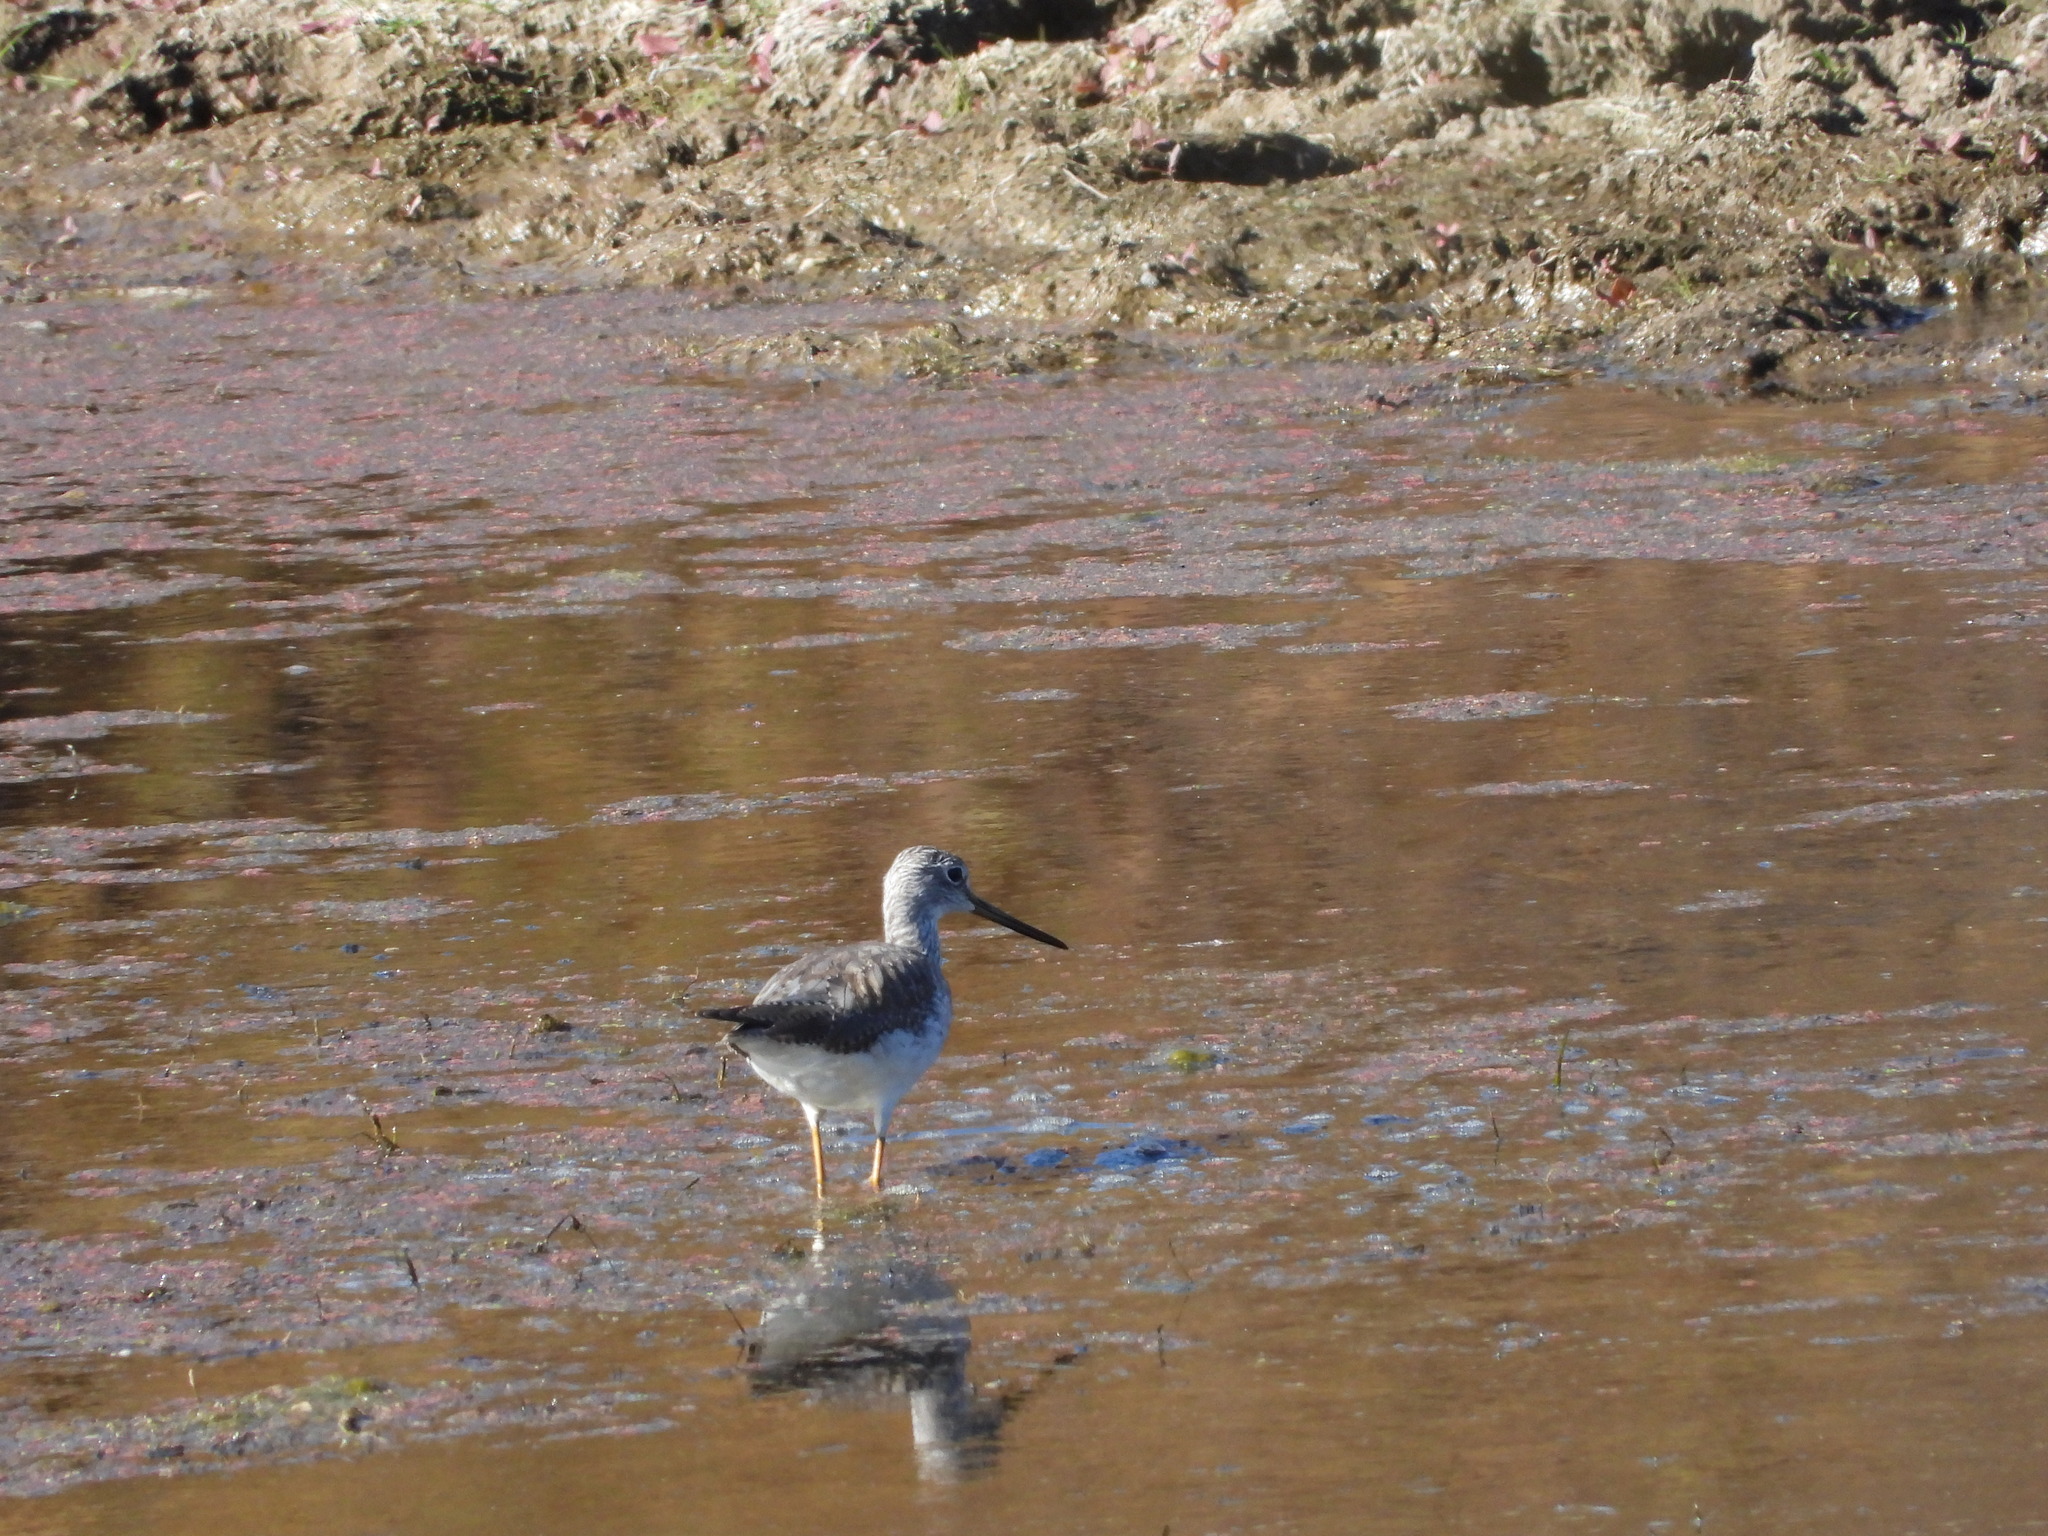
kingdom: Animalia
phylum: Chordata
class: Aves
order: Charadriiformes
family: Scolopacidae
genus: Tringa
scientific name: Tringa melanoleuca
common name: Greater yellowlegs
